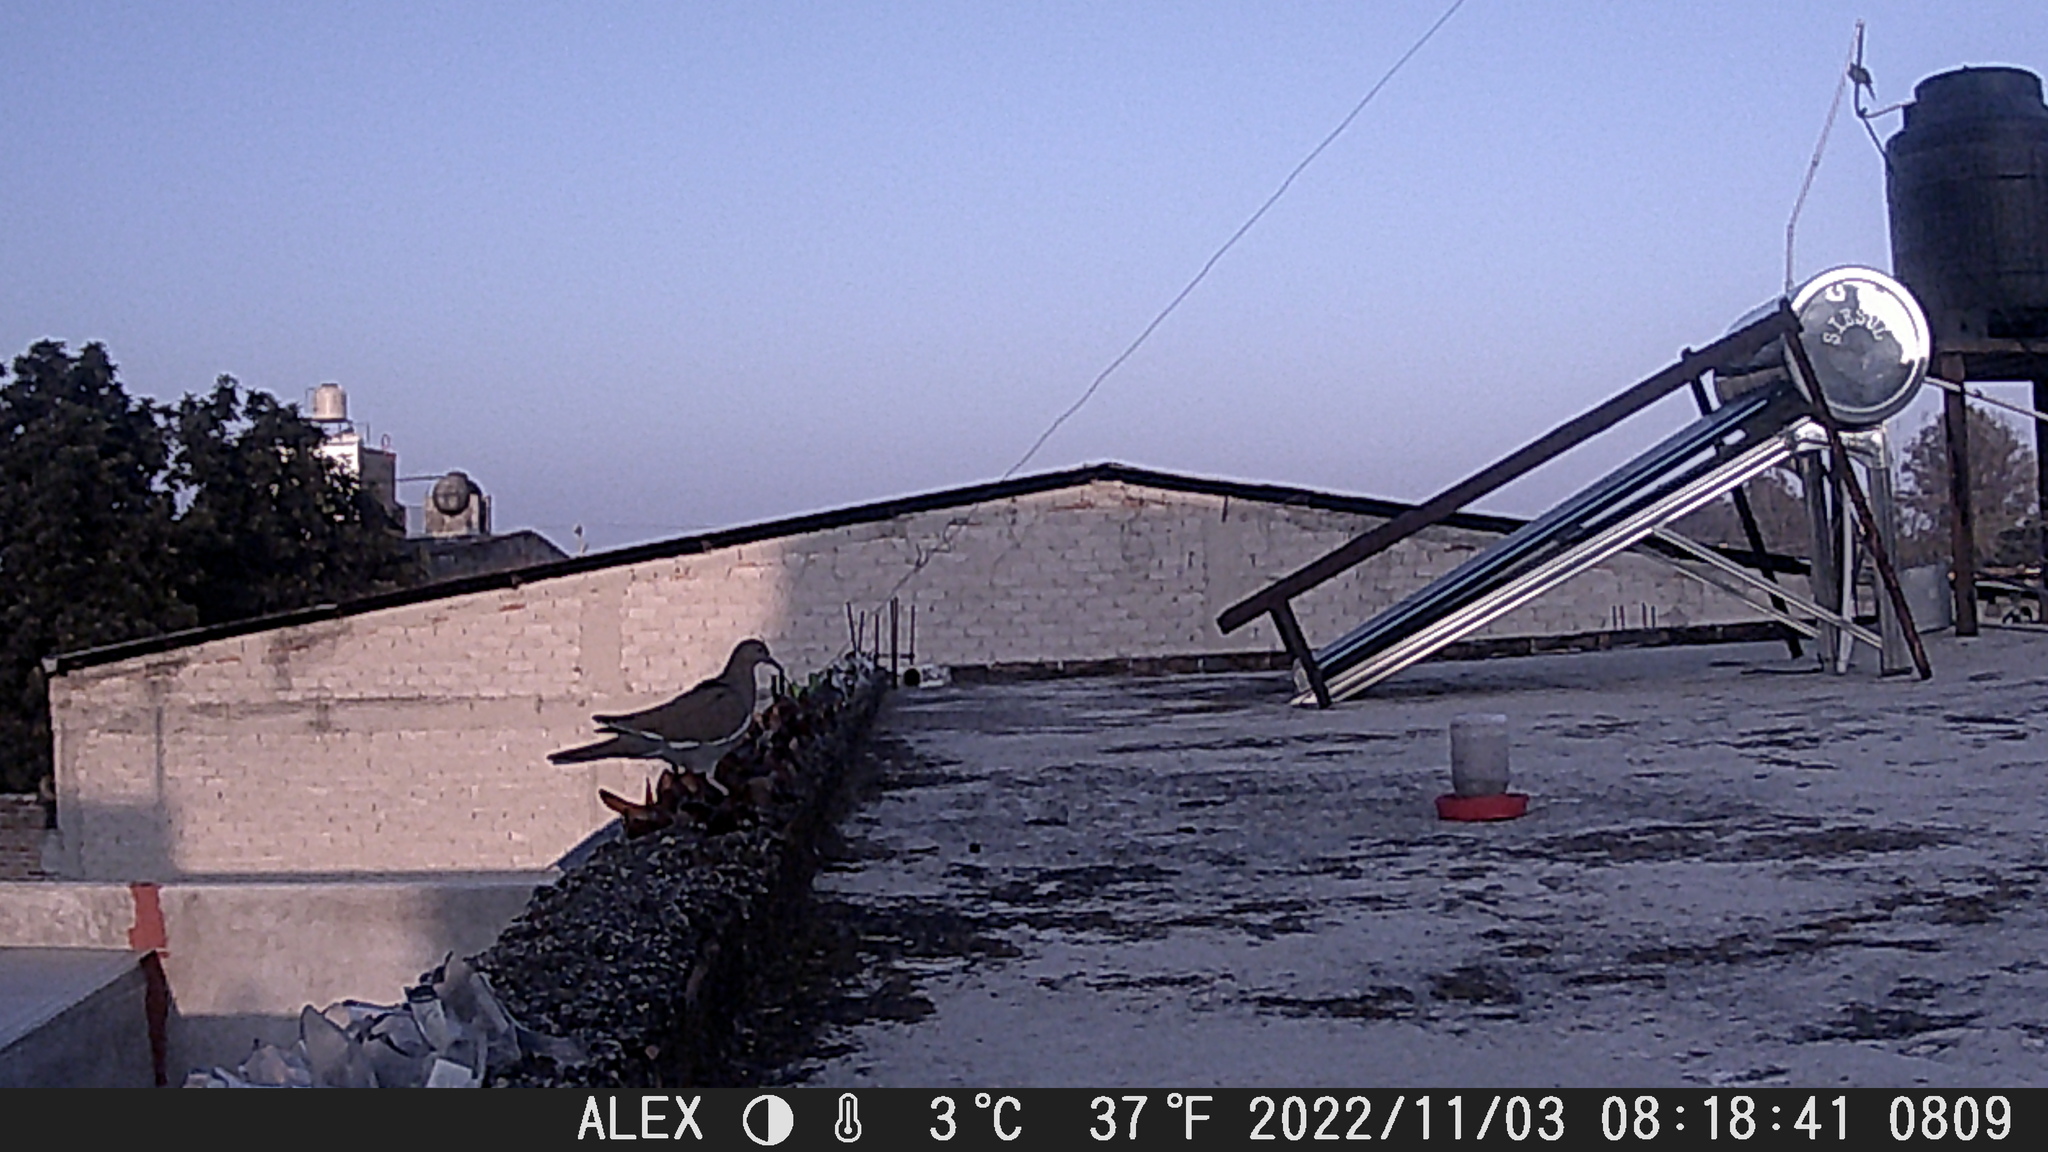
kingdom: Animalia
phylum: Chordata
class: Aves
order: Columbiformes
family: Columbidae
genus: Zenaida
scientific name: Zenaida asiatica
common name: White-winged dove
